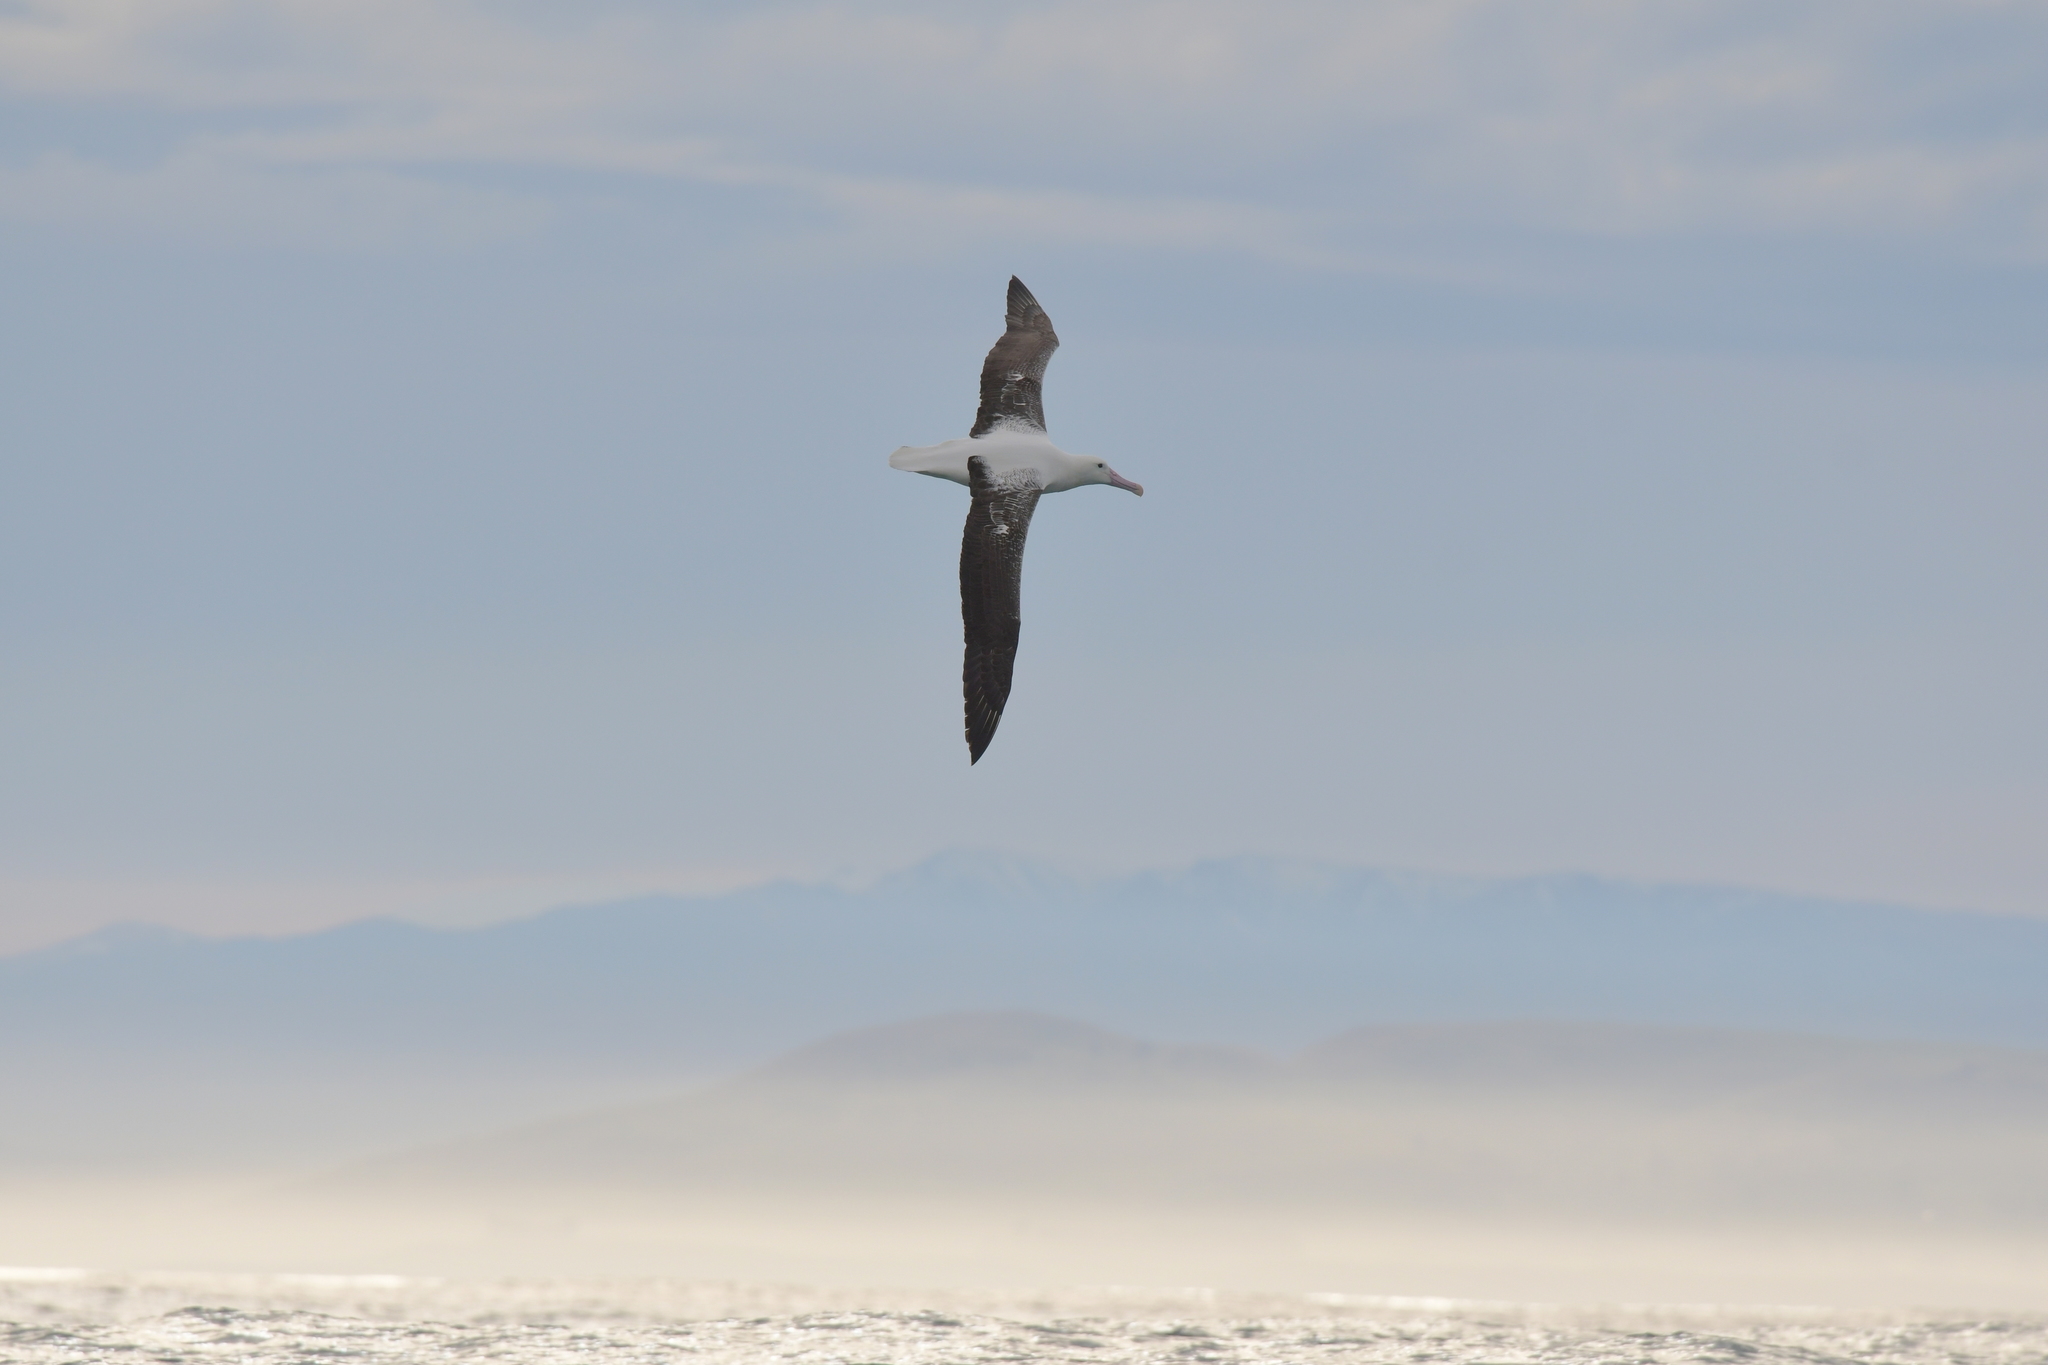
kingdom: Animalia
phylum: Chordata
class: Aves
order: Procellariiformes
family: Diomedeidae
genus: Diomedea
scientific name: Diomedea epomophora
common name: Southern royal albatross
